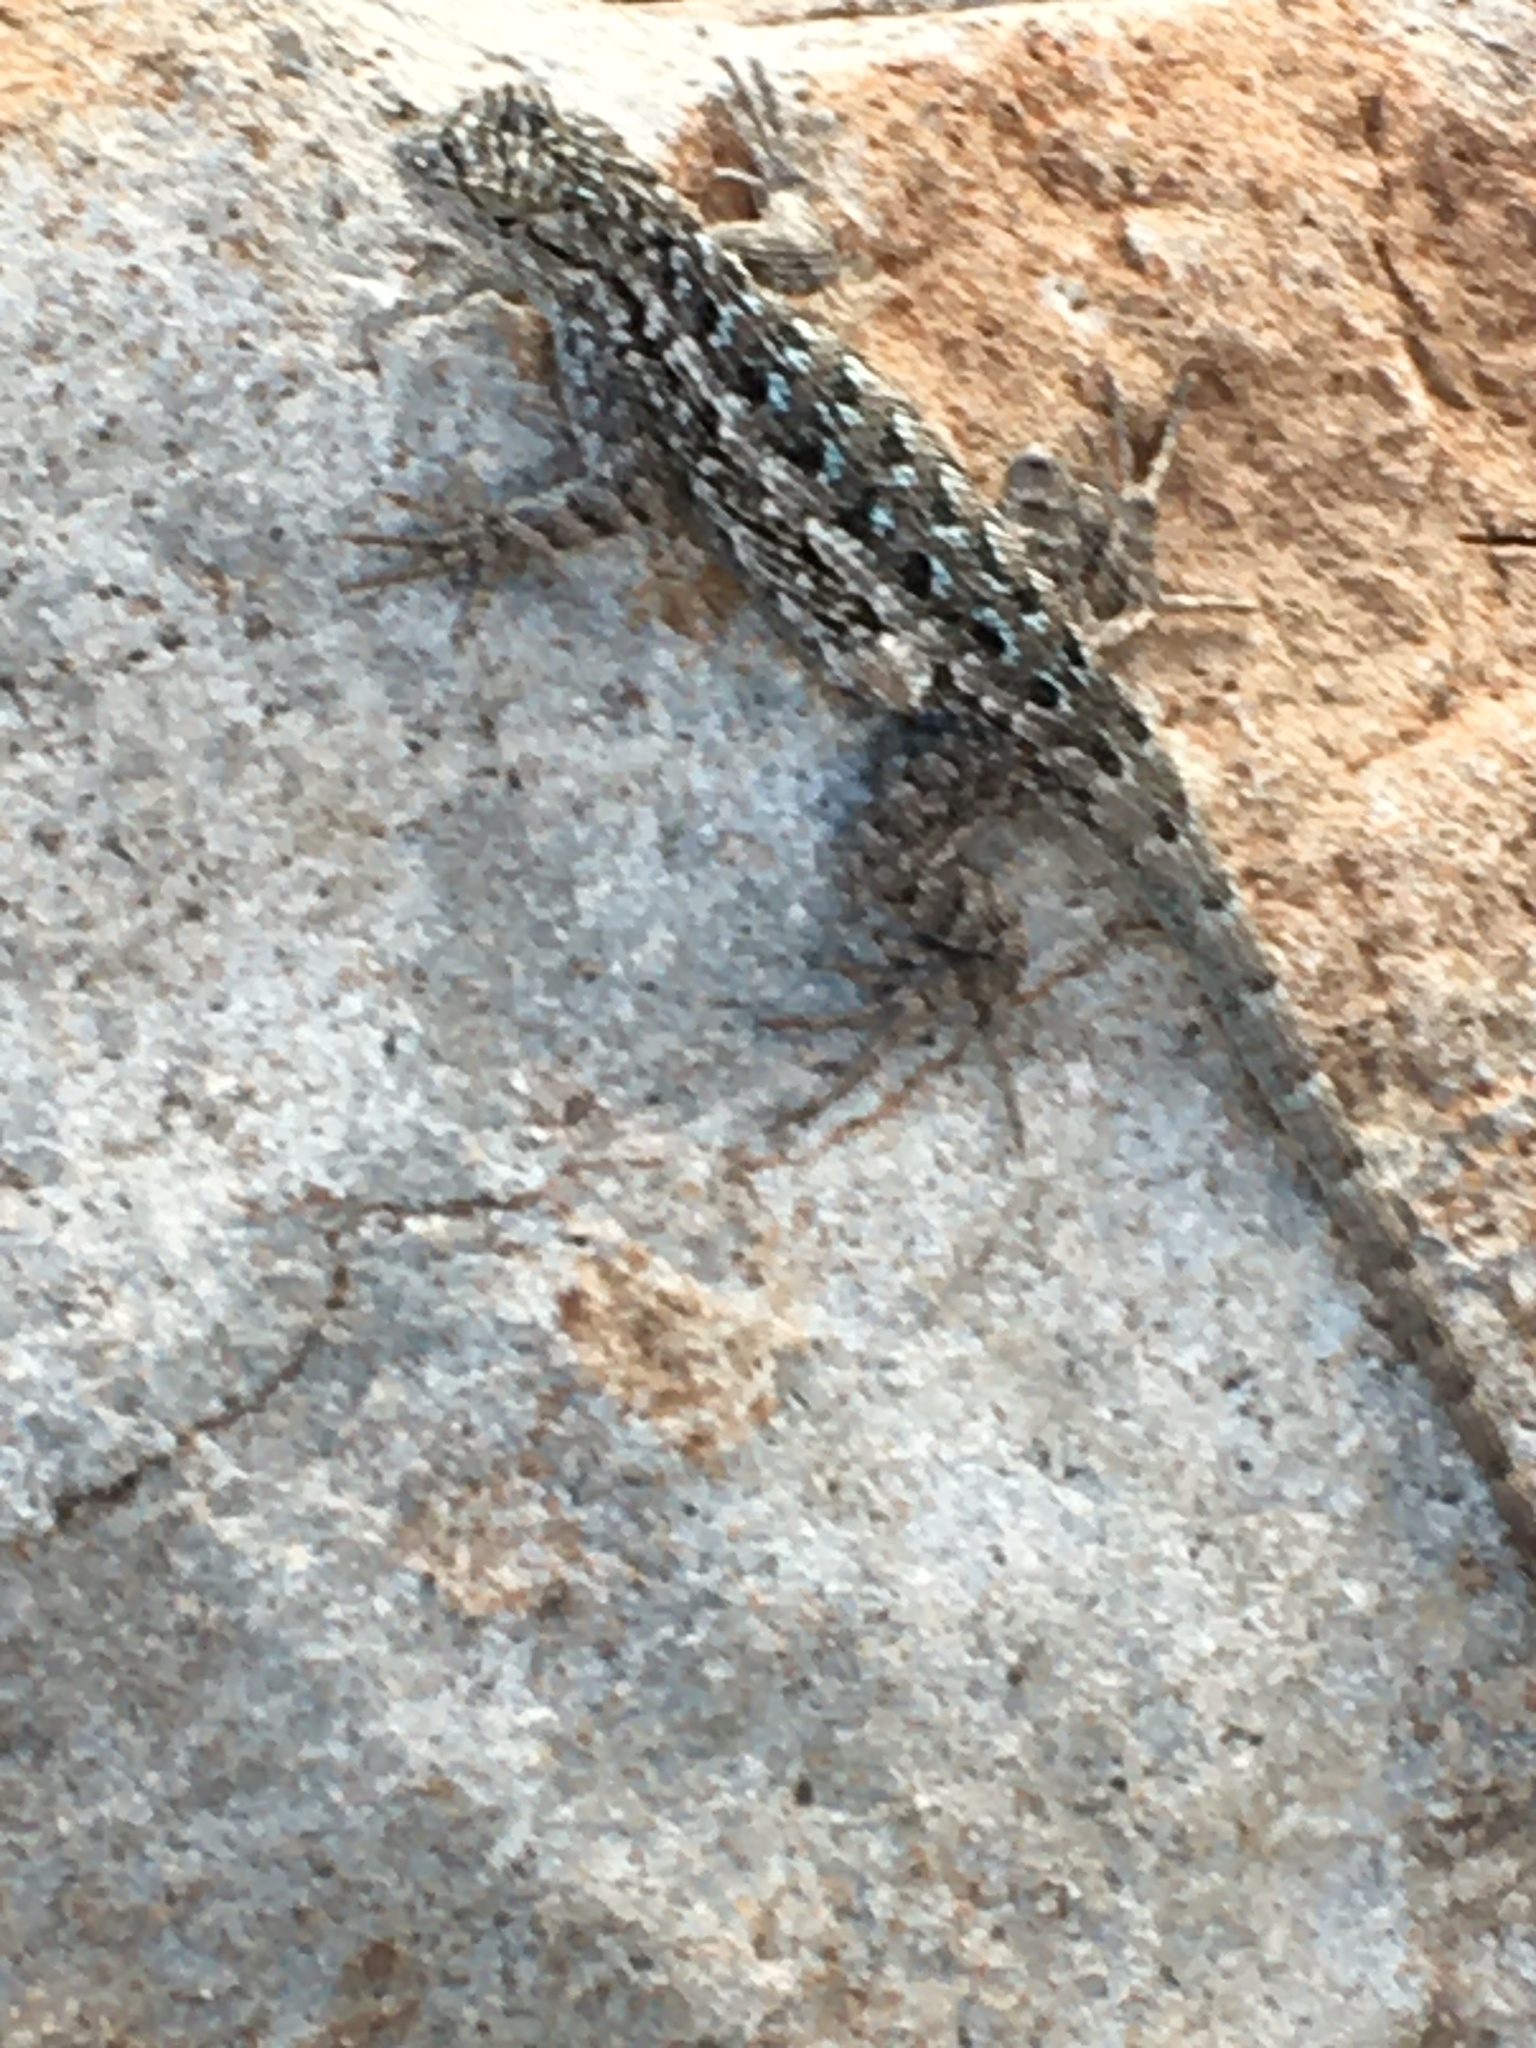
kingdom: Animalia
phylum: Chordata
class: Squamata
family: Phrynosomatidae
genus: Sceloporus
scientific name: Sceloporus occidentalis
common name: Western fence lizard
